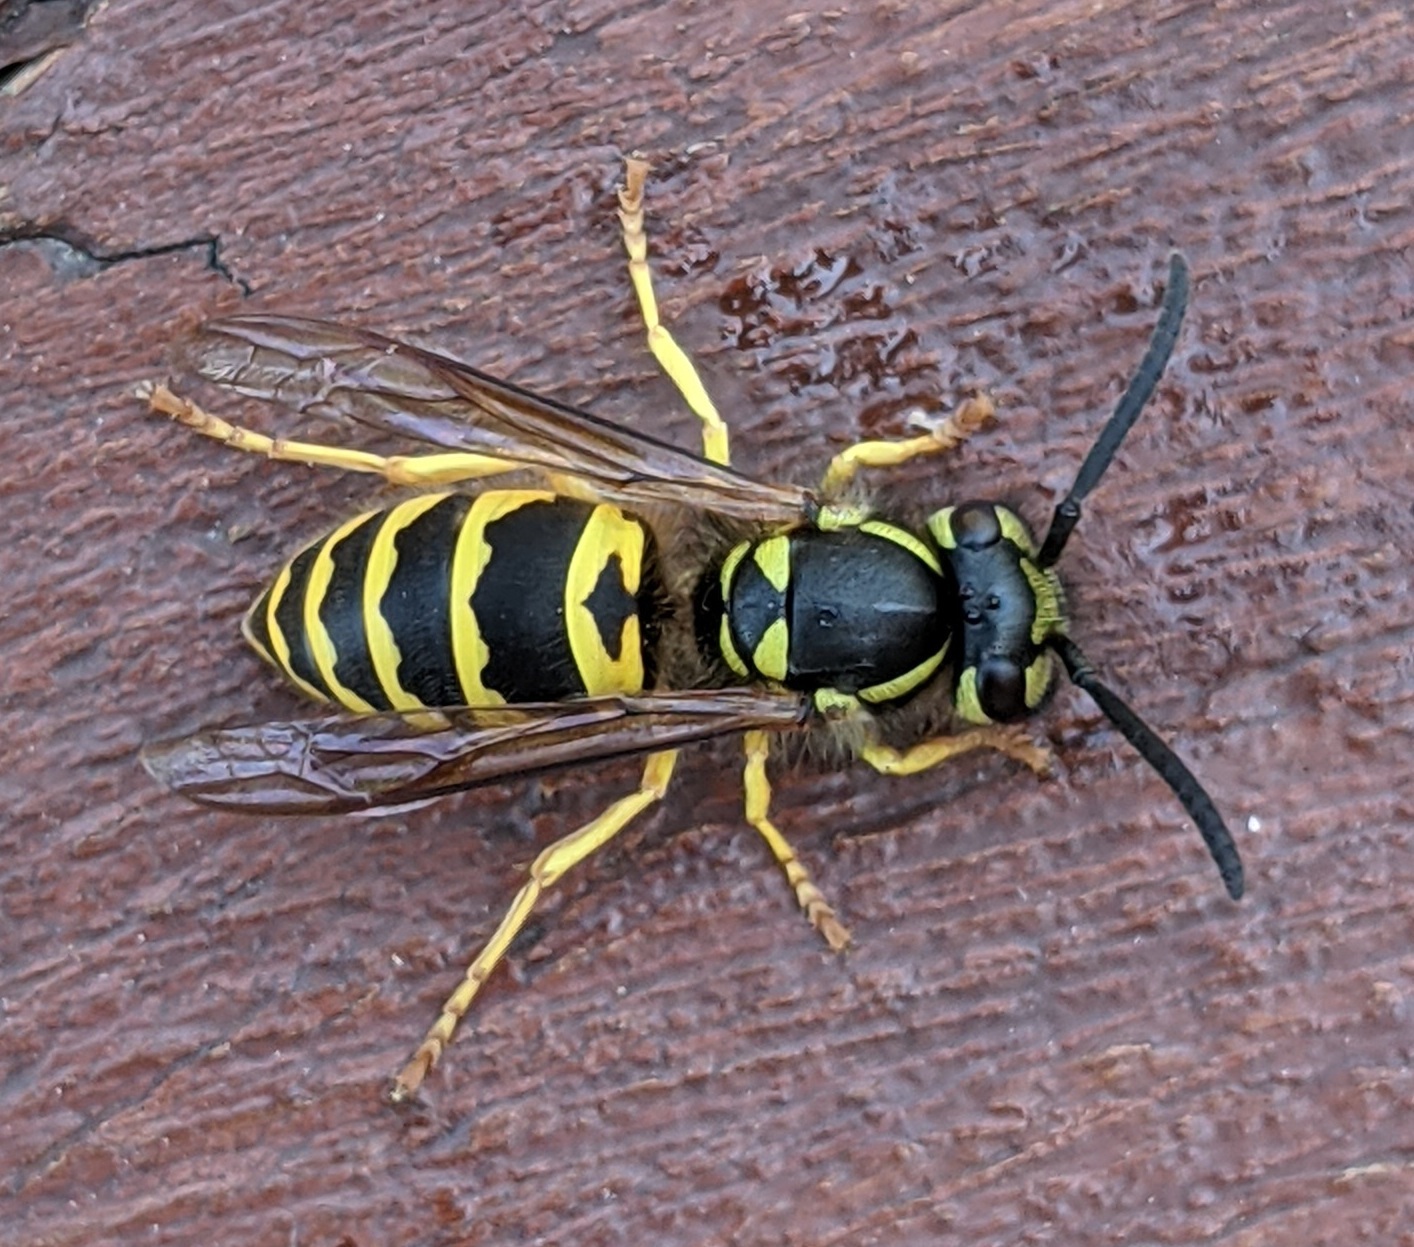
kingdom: Animalia
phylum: Arthropoda
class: Insecta
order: Hymenoptera
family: Vespidae
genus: Vespula
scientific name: Vespula maculifrons
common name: Eastern yellowjacket
